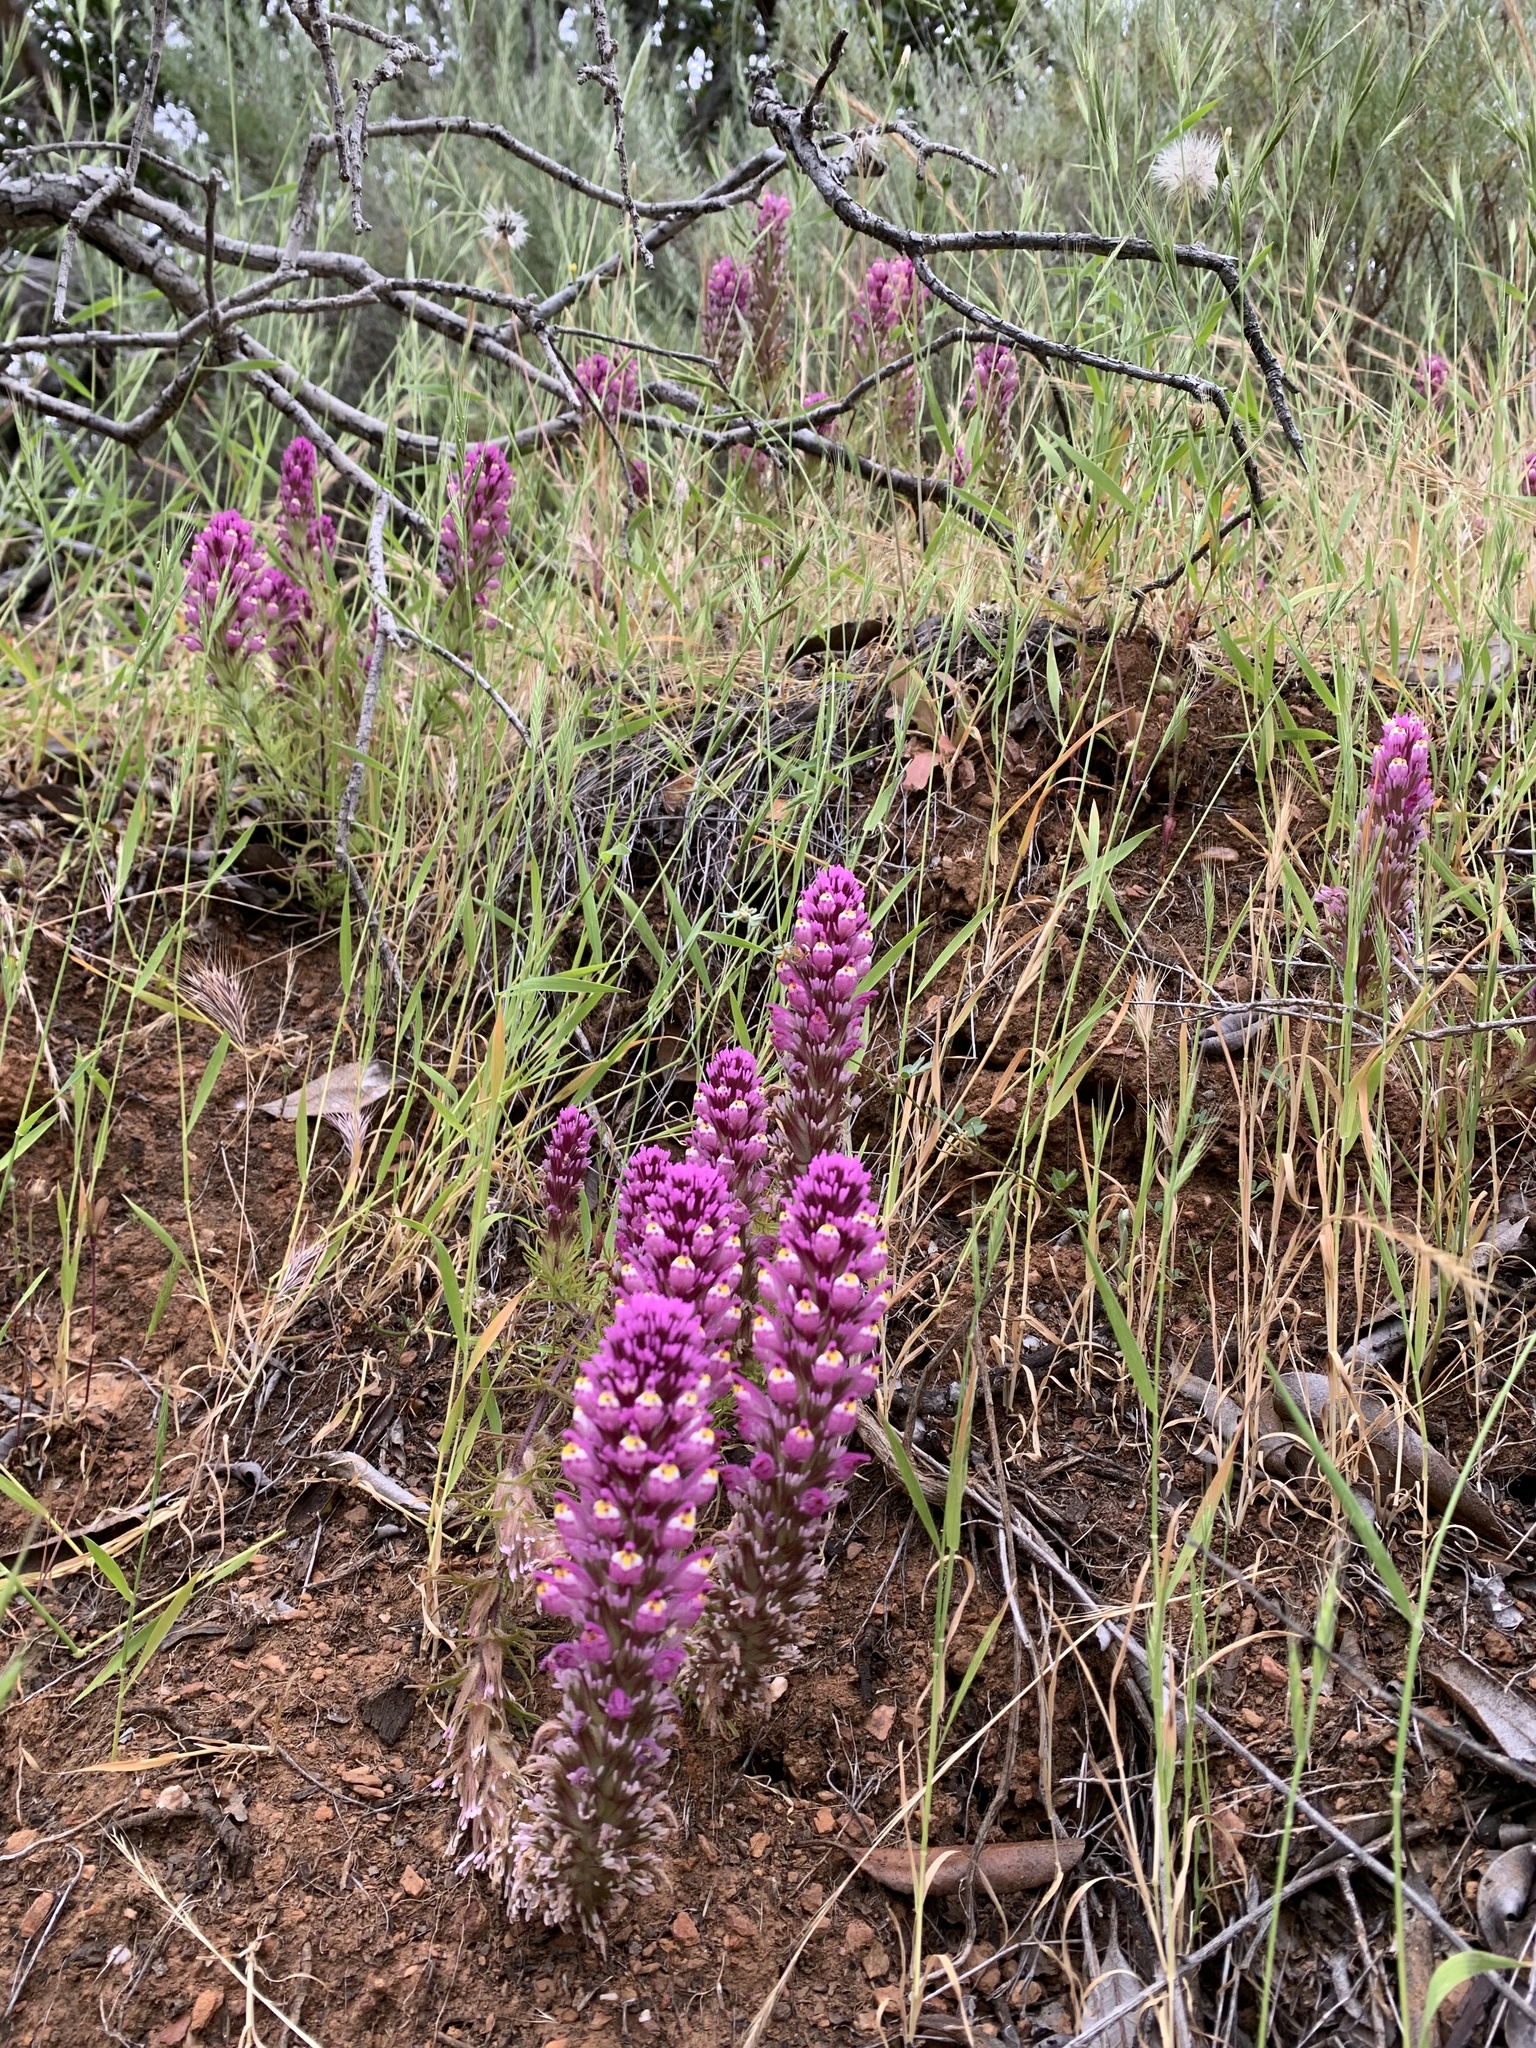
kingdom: Plantae
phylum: Tracheophyta
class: Magnoliopsida
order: Lamiales
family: Orobanchaceae
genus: Castilleja
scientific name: Castilleja exserta
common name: Purple owl-clover
